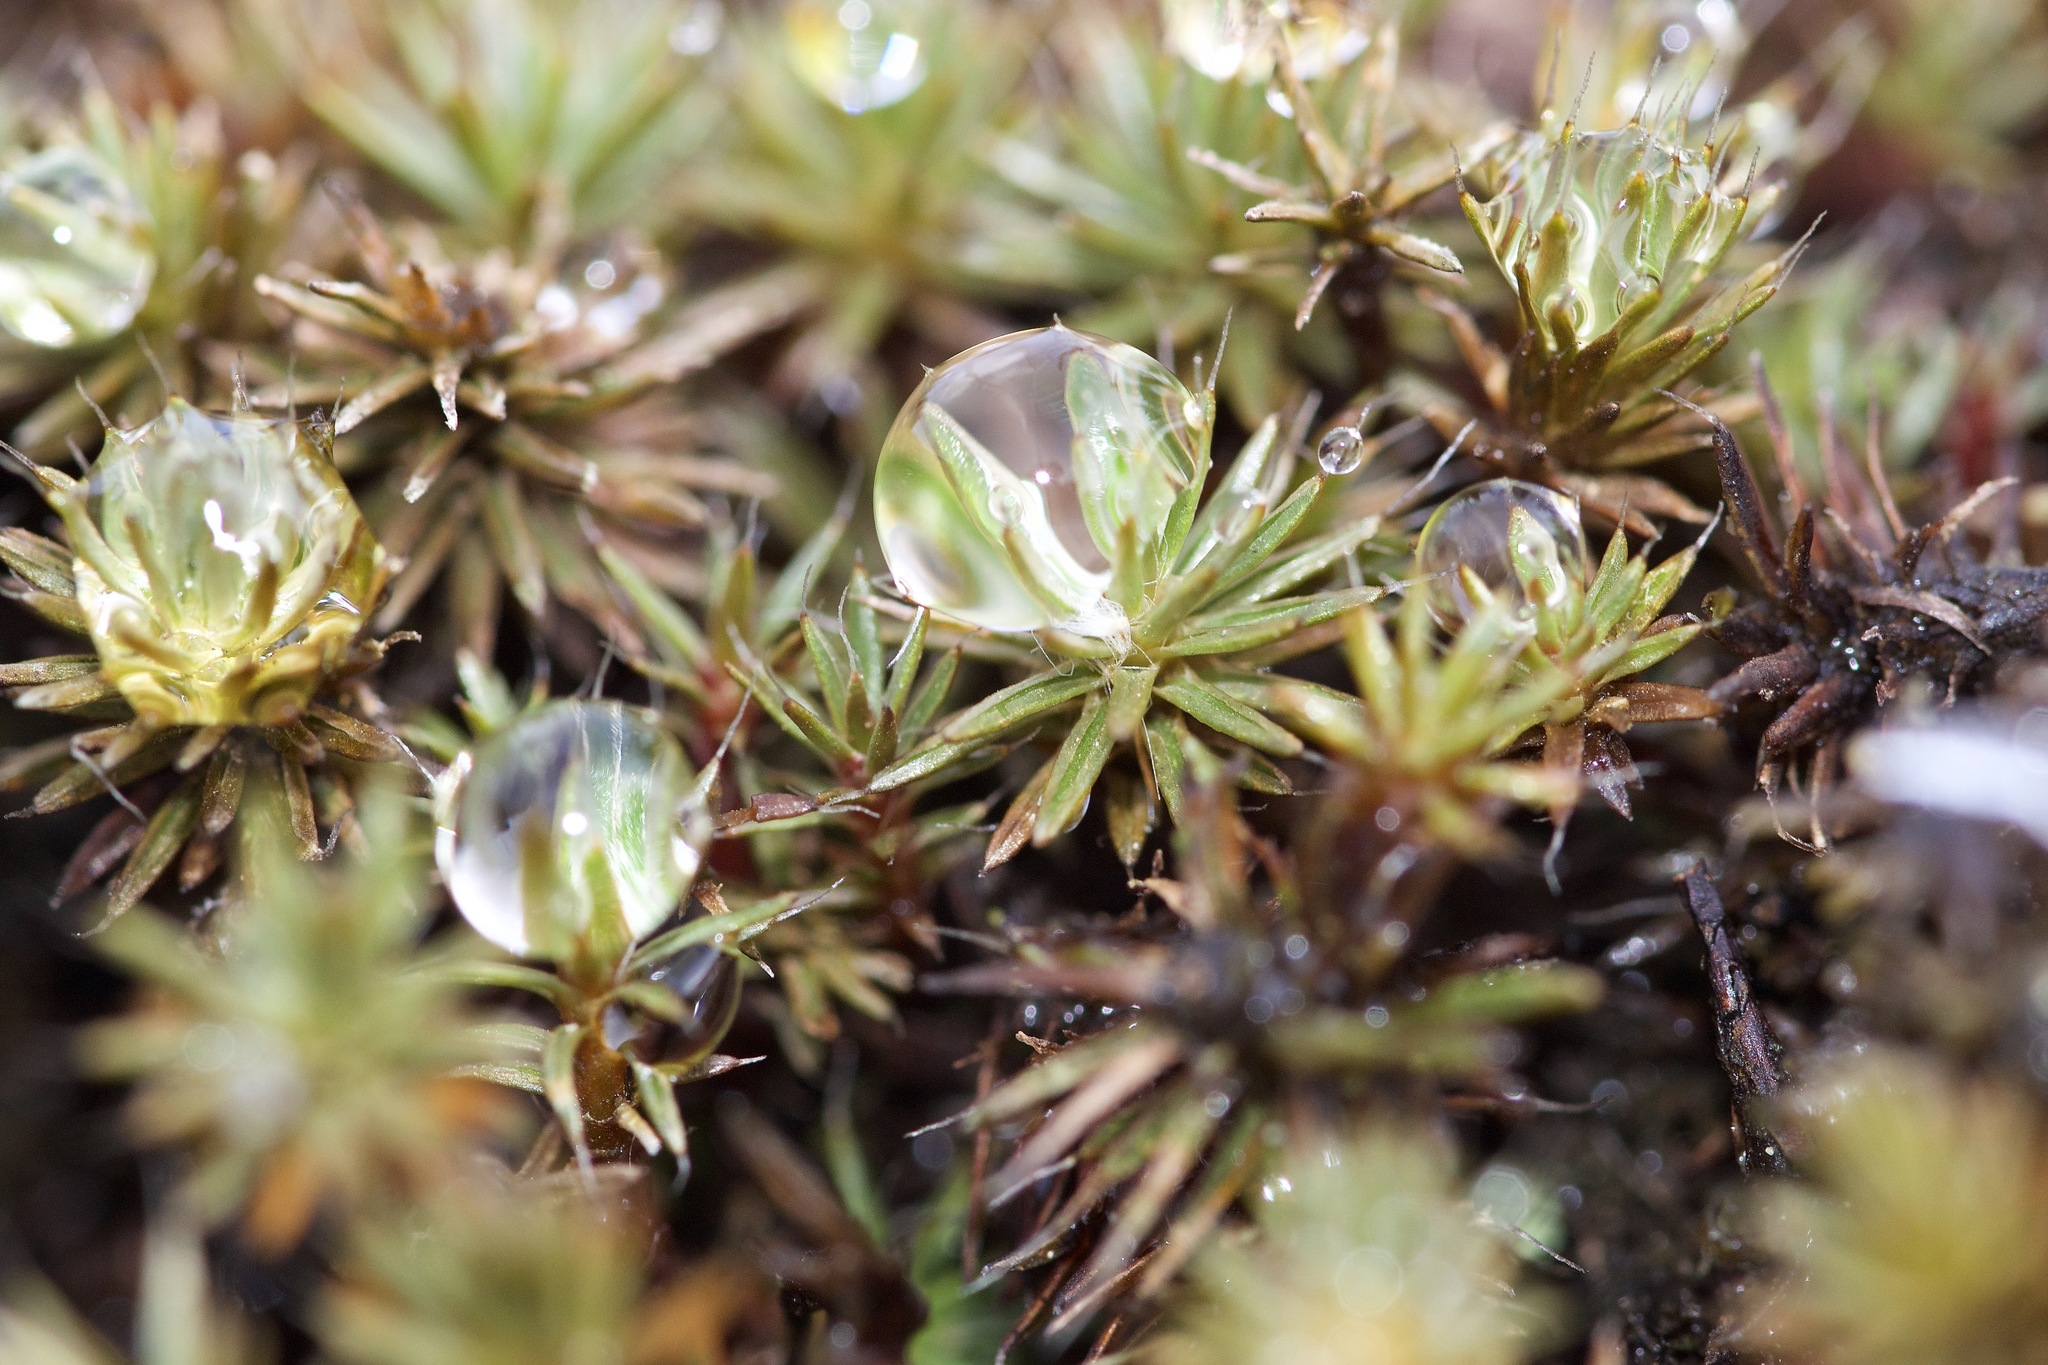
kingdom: Plantae
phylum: Bryophyta
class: Polytrichopsida
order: Polytrichales
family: Polytrichaceae
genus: Polytrichum
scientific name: Polytrichum piliferum
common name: Bristly haircap
